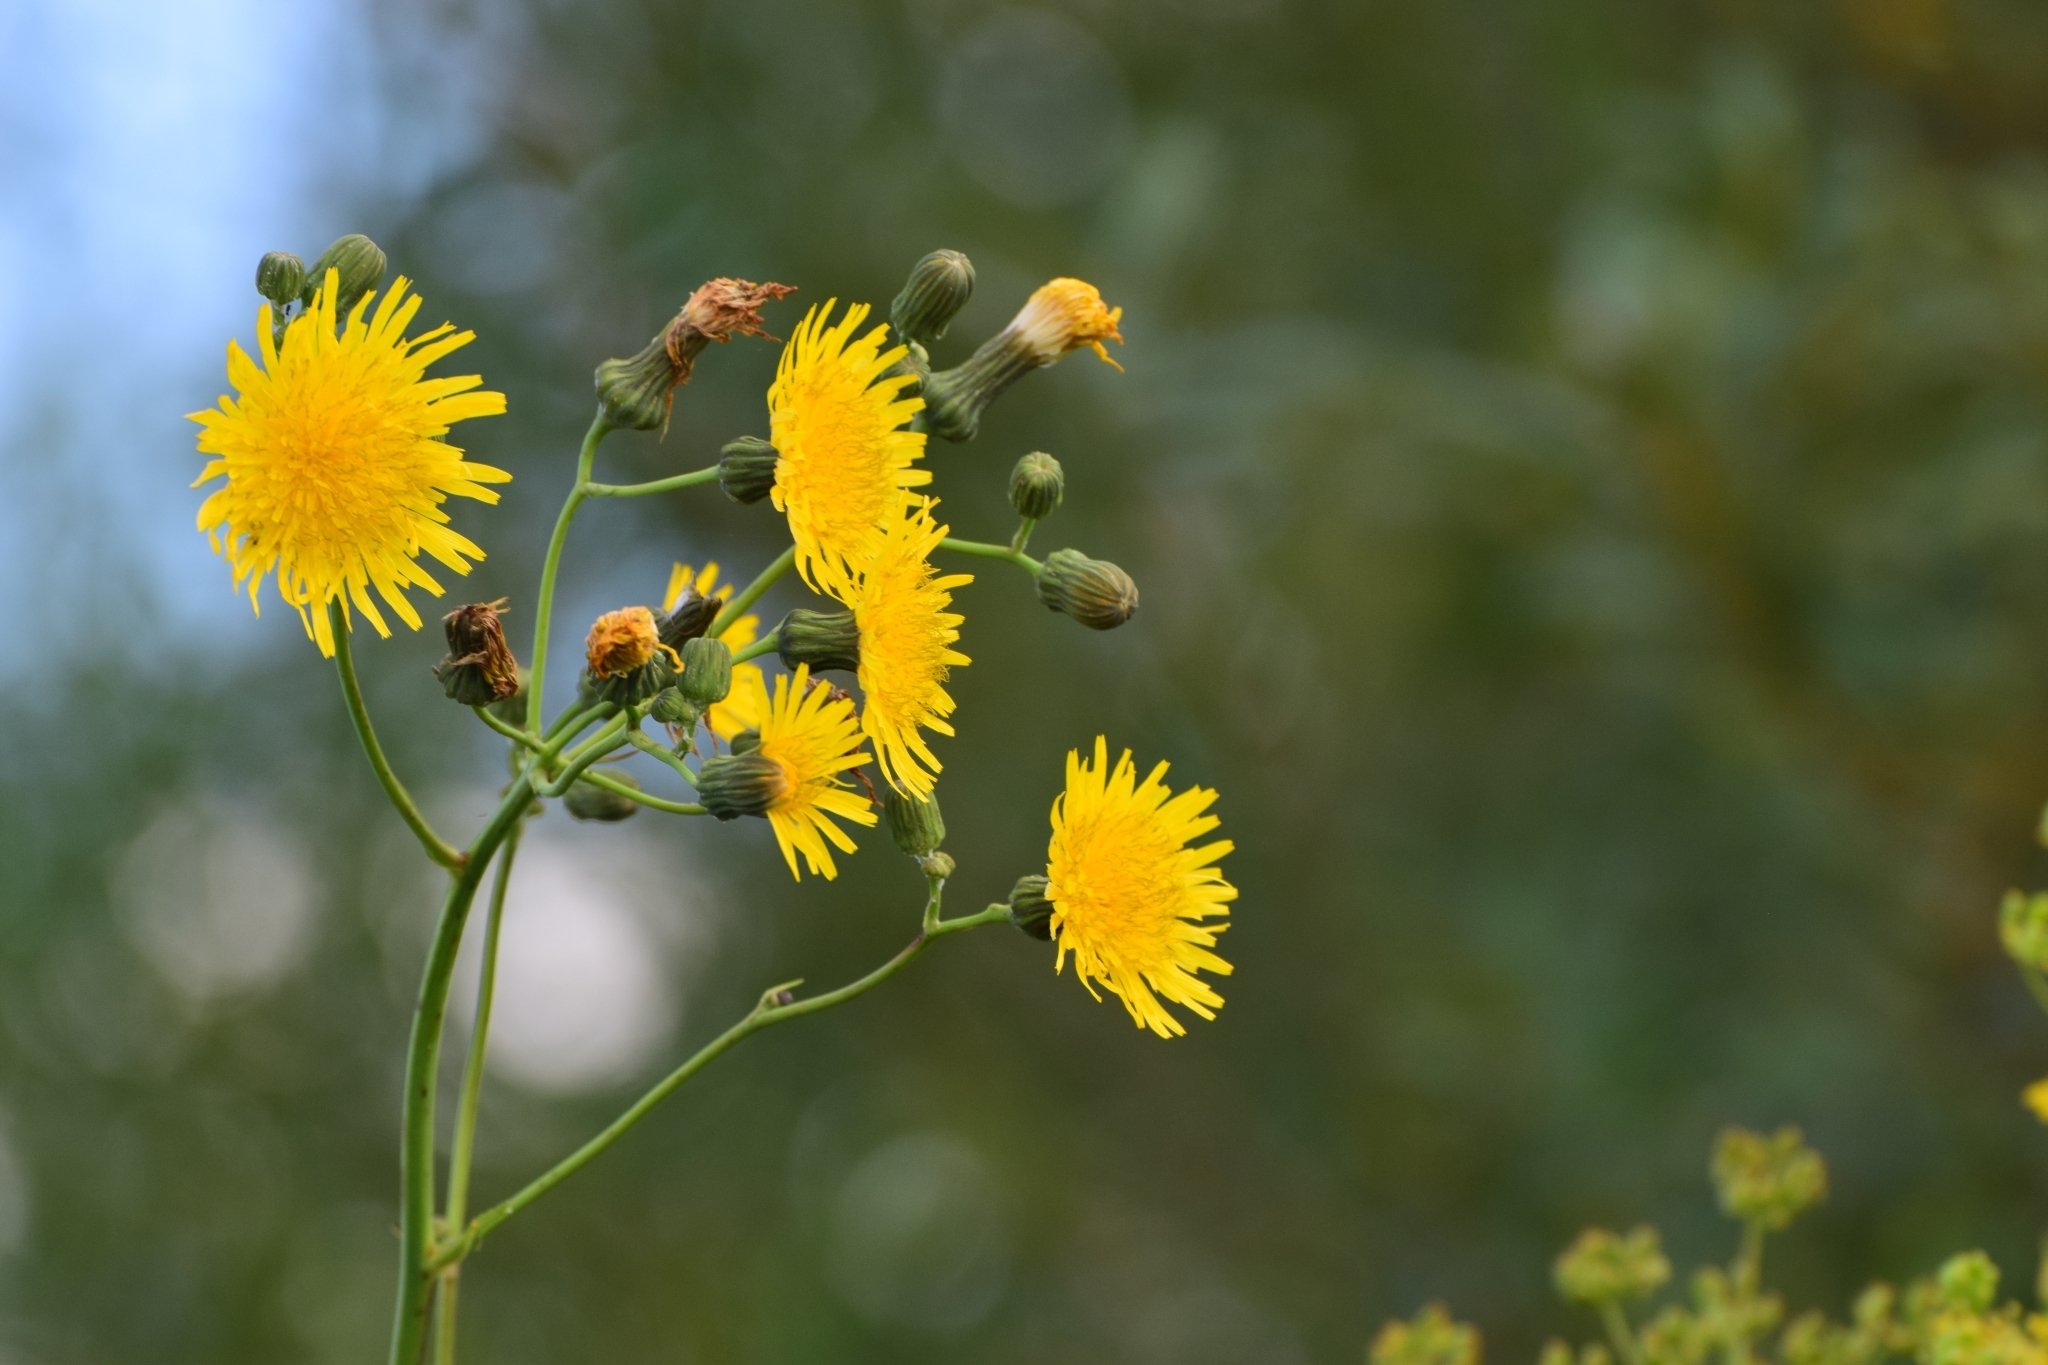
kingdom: Plantae
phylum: Tracheophyta
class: Magnoliopsida
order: Asterales
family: Asteraceae
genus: Sonchus
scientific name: Sonchus arvensis
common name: Perennial sow-thistle
